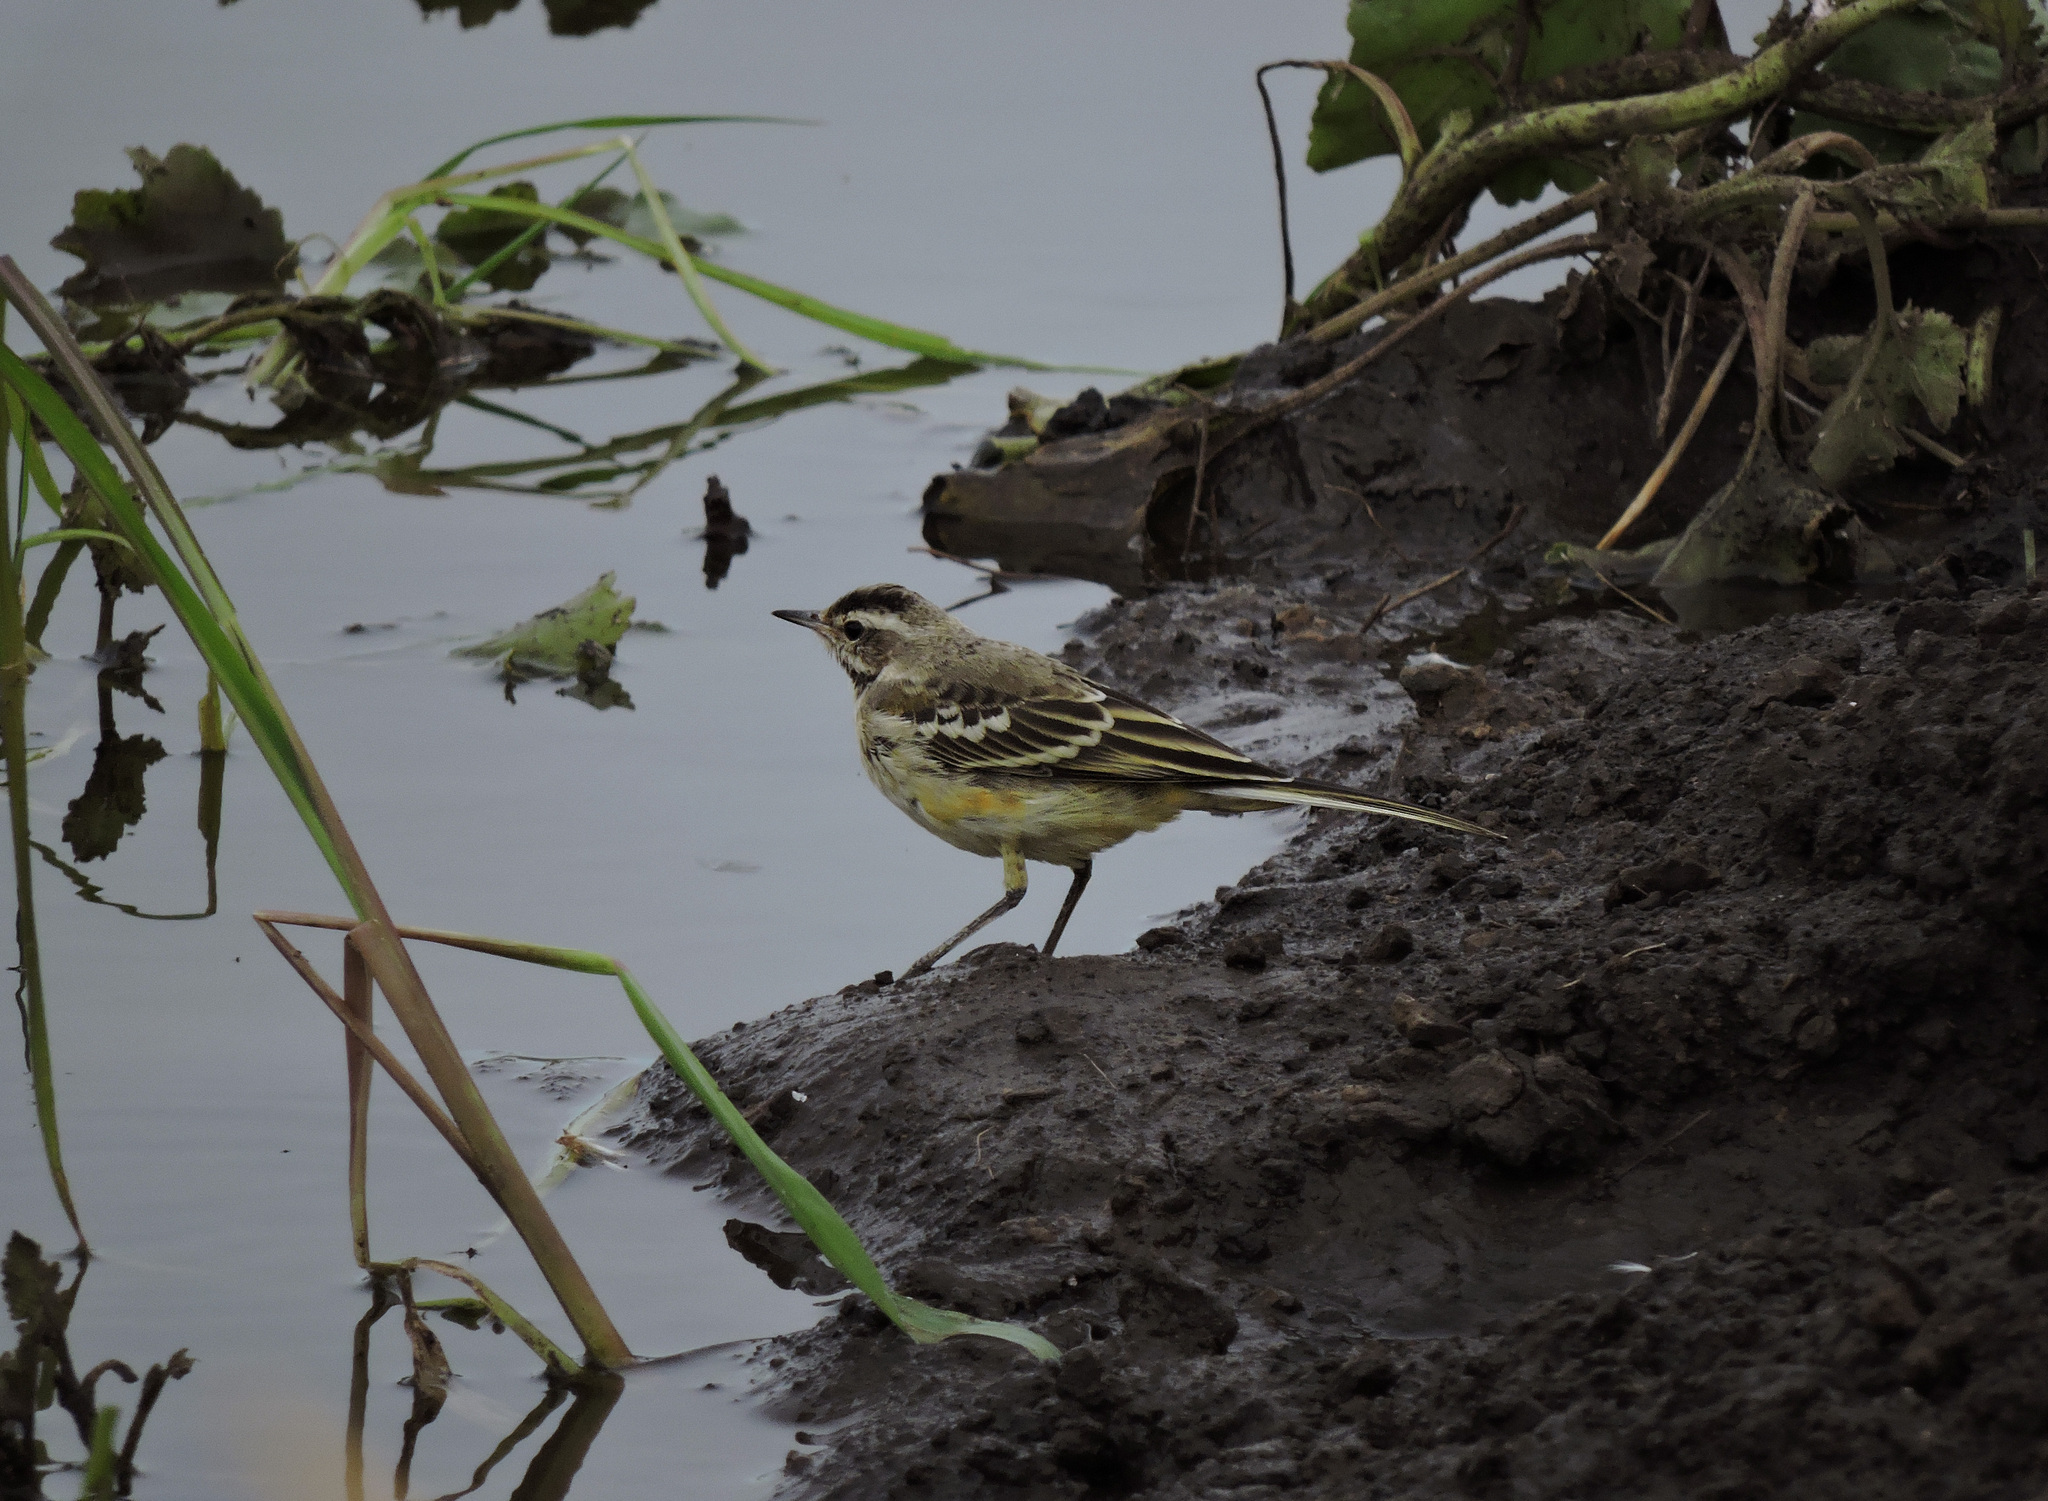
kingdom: Animalia
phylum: Chordata
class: Aves
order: Passeriformes
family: Motacillidae
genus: Motacilla
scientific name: Motacilla flava
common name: Western yellow wagtail
